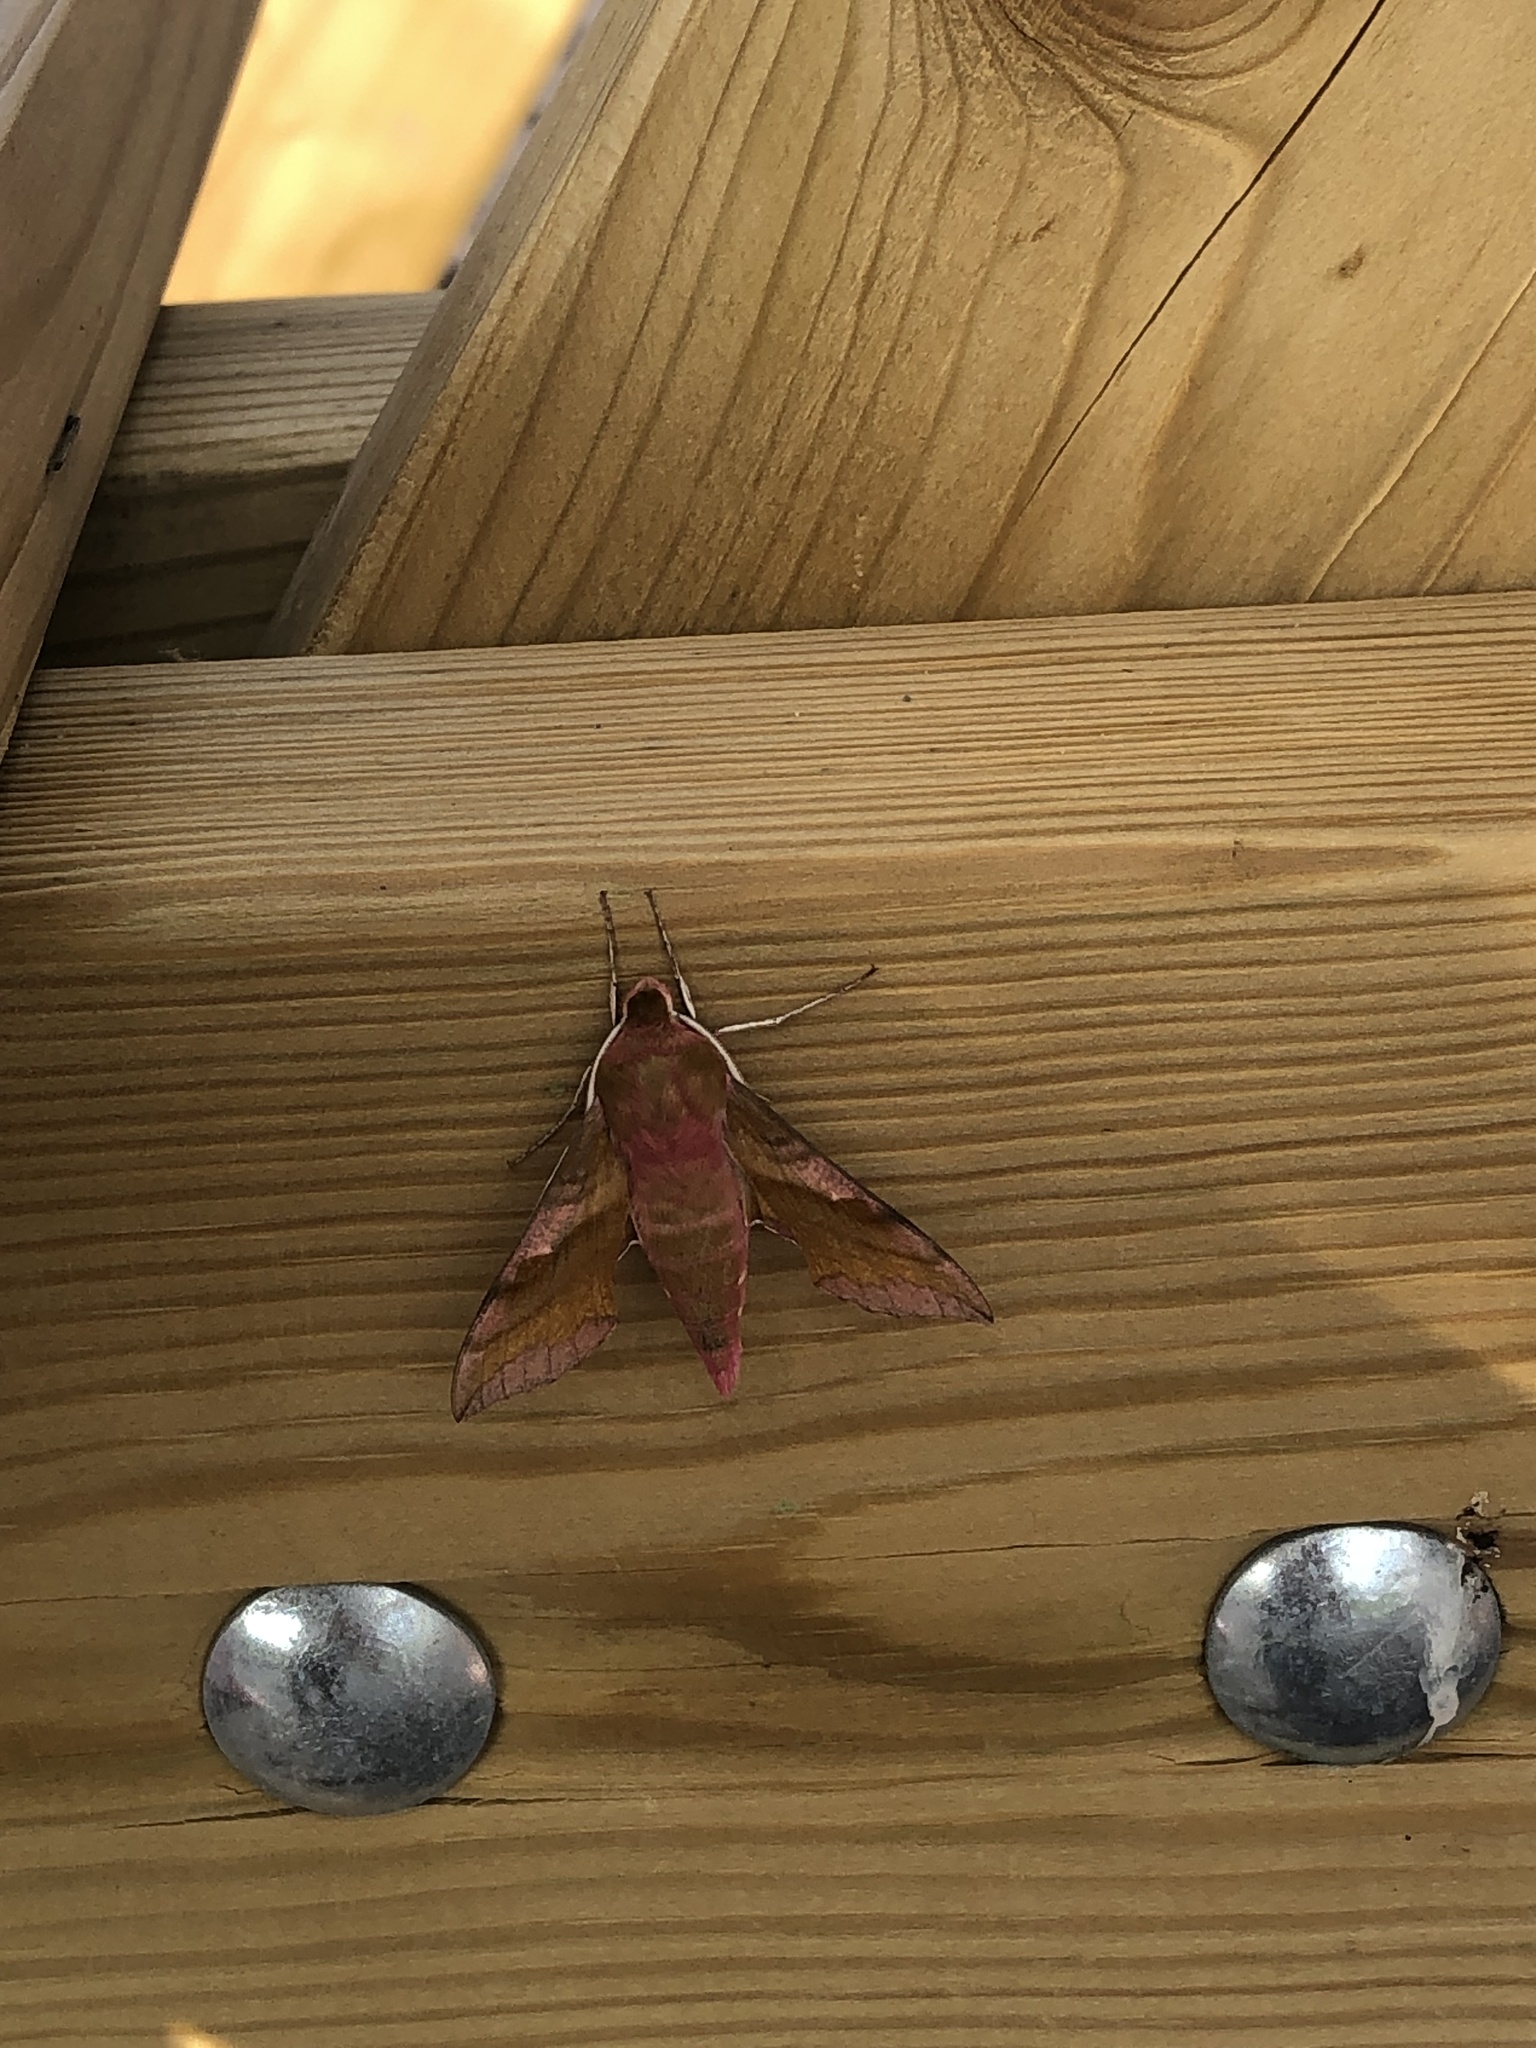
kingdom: Animalia
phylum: Arthropoda
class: Insecta
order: Lepidoptera
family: Sphingidae
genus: Deilephila
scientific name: Deilephila porcellus
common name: Small elephant hawk-moth
